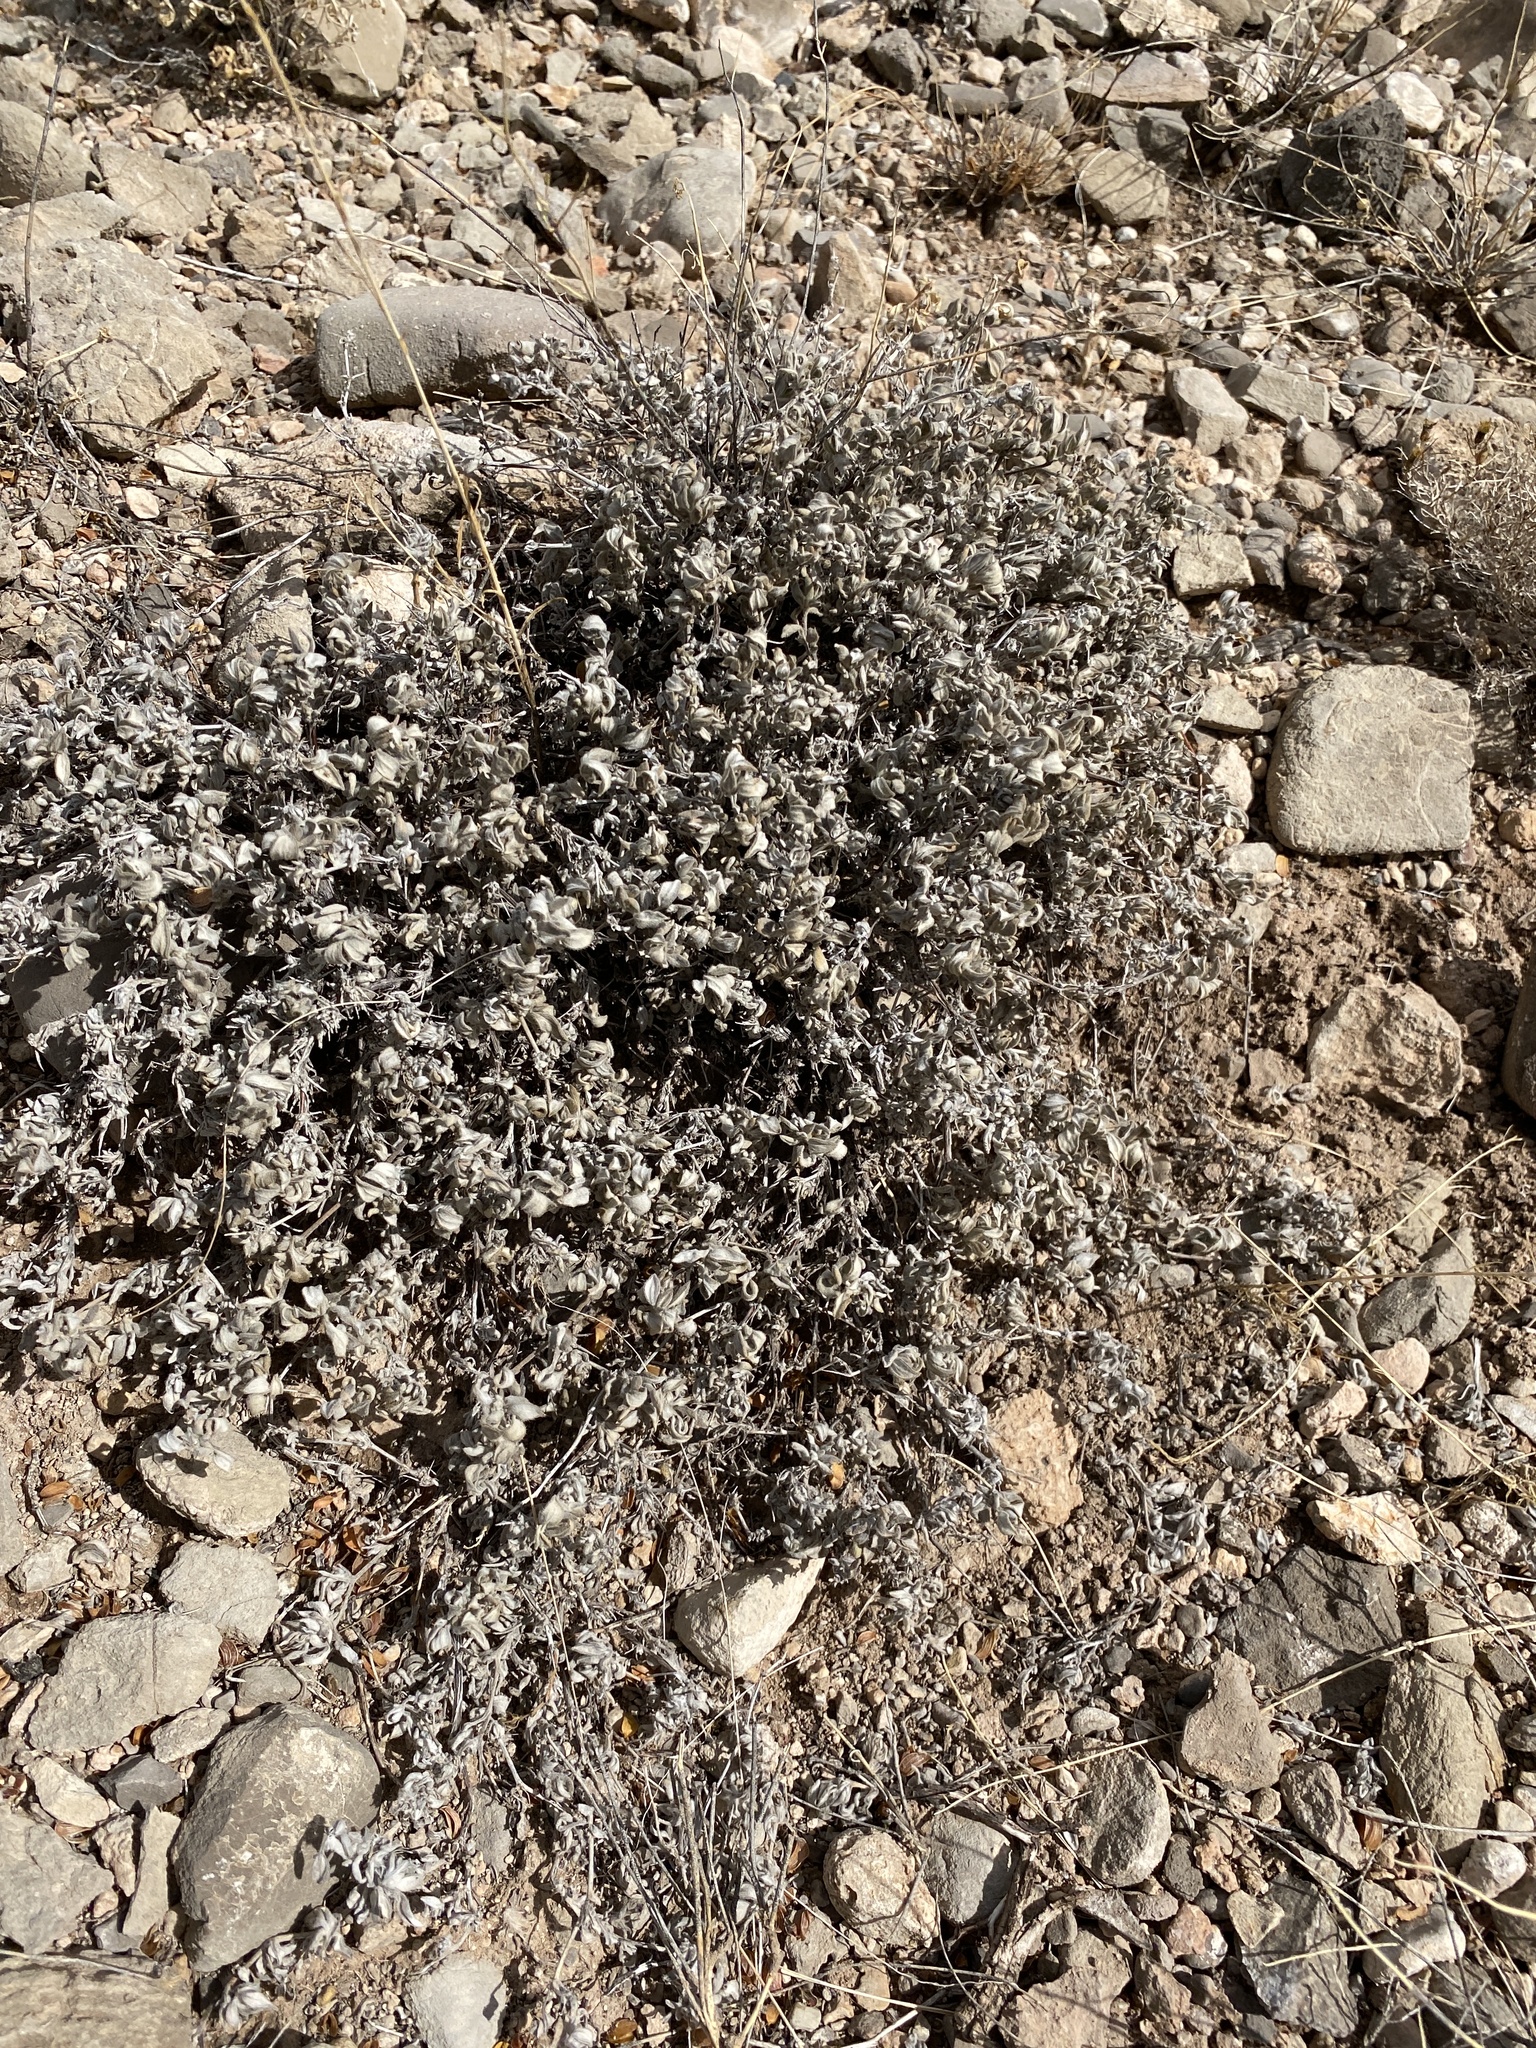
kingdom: Plantae
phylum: Tracheophyta
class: Magnoliopsida
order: Boraginales
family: Ehretiaceae
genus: Tiquilia
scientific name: Tiquilia canescens
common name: Hairy tiquilia
